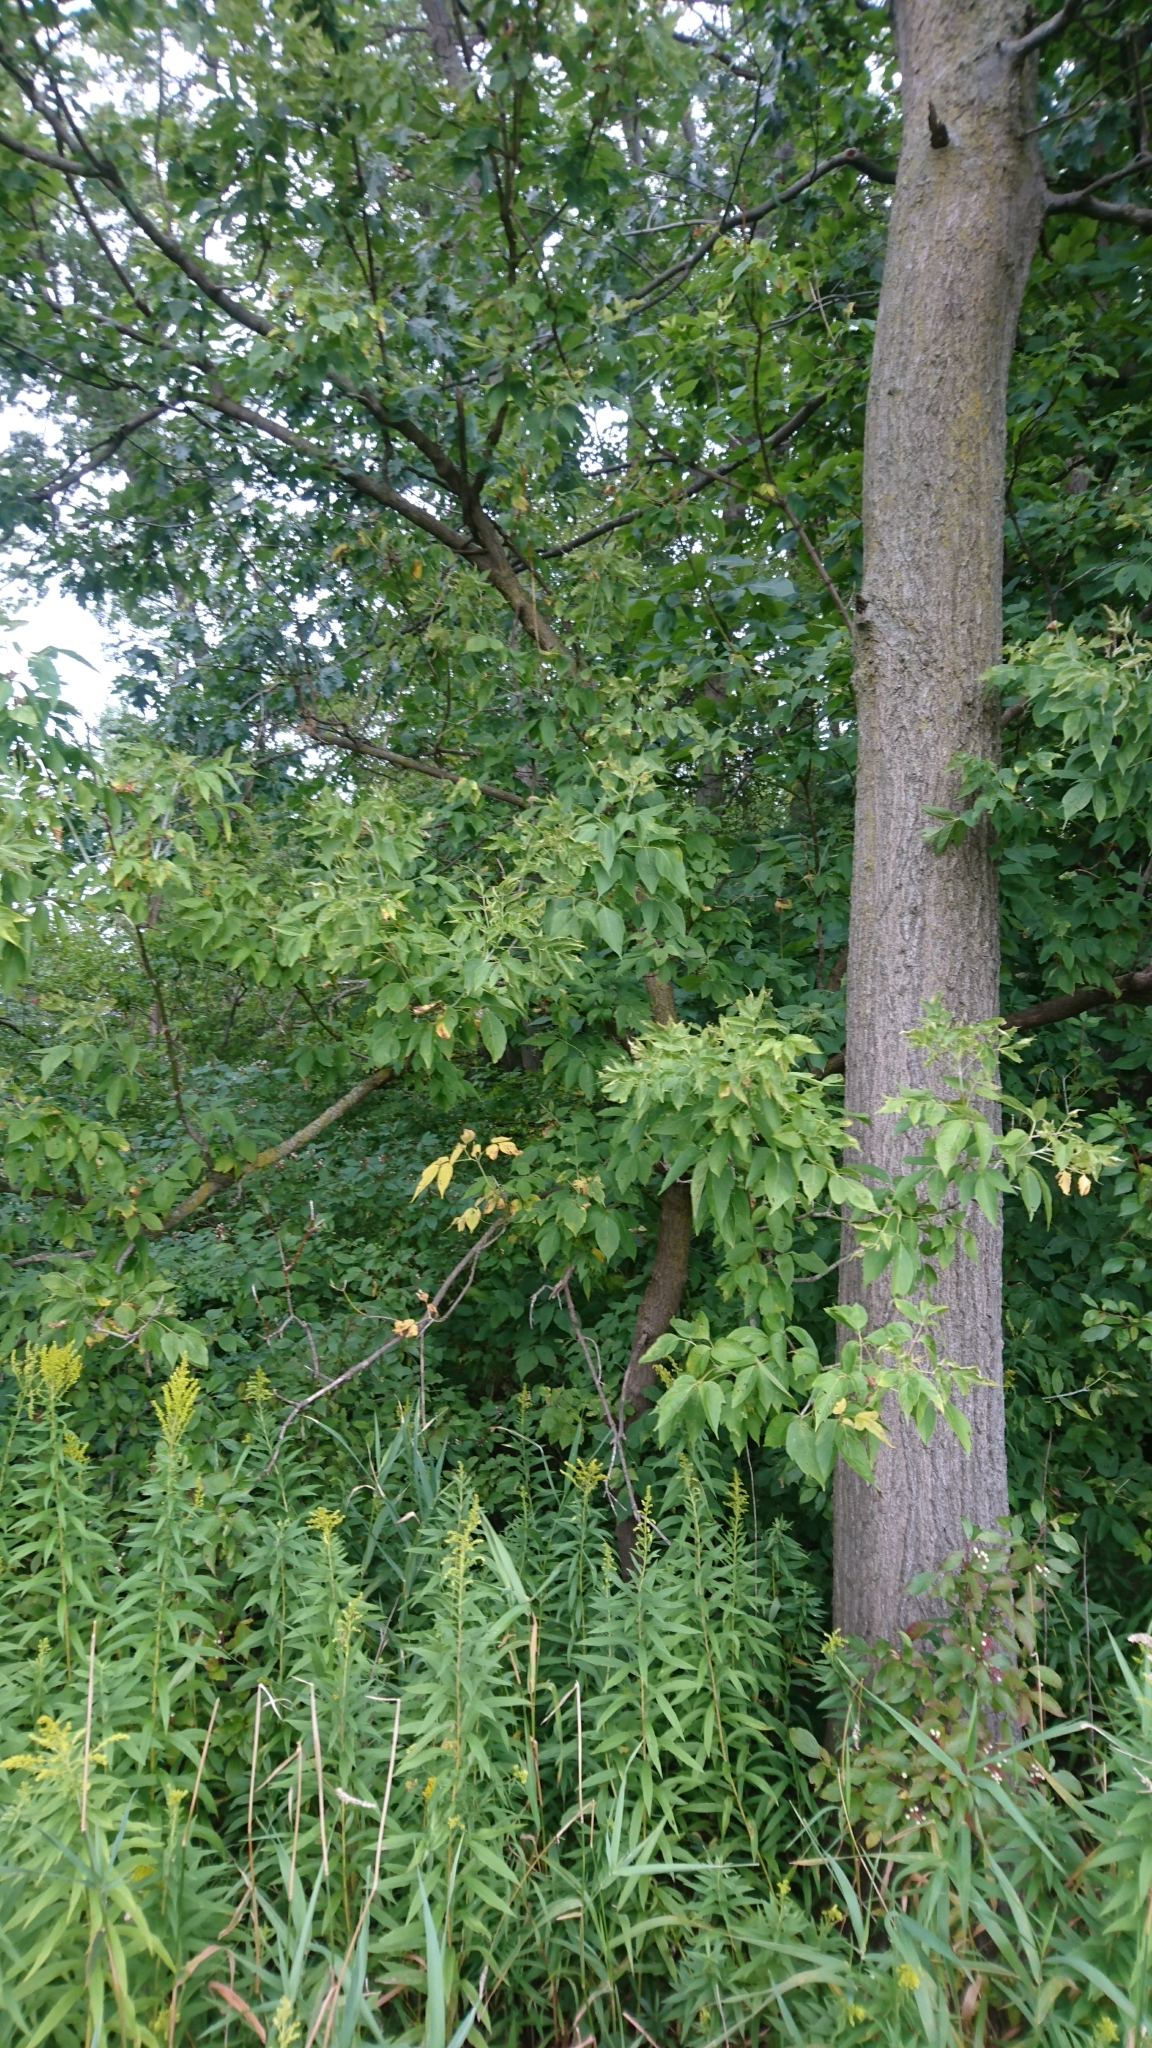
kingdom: Plantae
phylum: Tracheophyta
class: Magnoliopsida
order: Sapindales
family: Sapindaceae
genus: Acer
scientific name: Acer negundo
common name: Ashleaf maple
